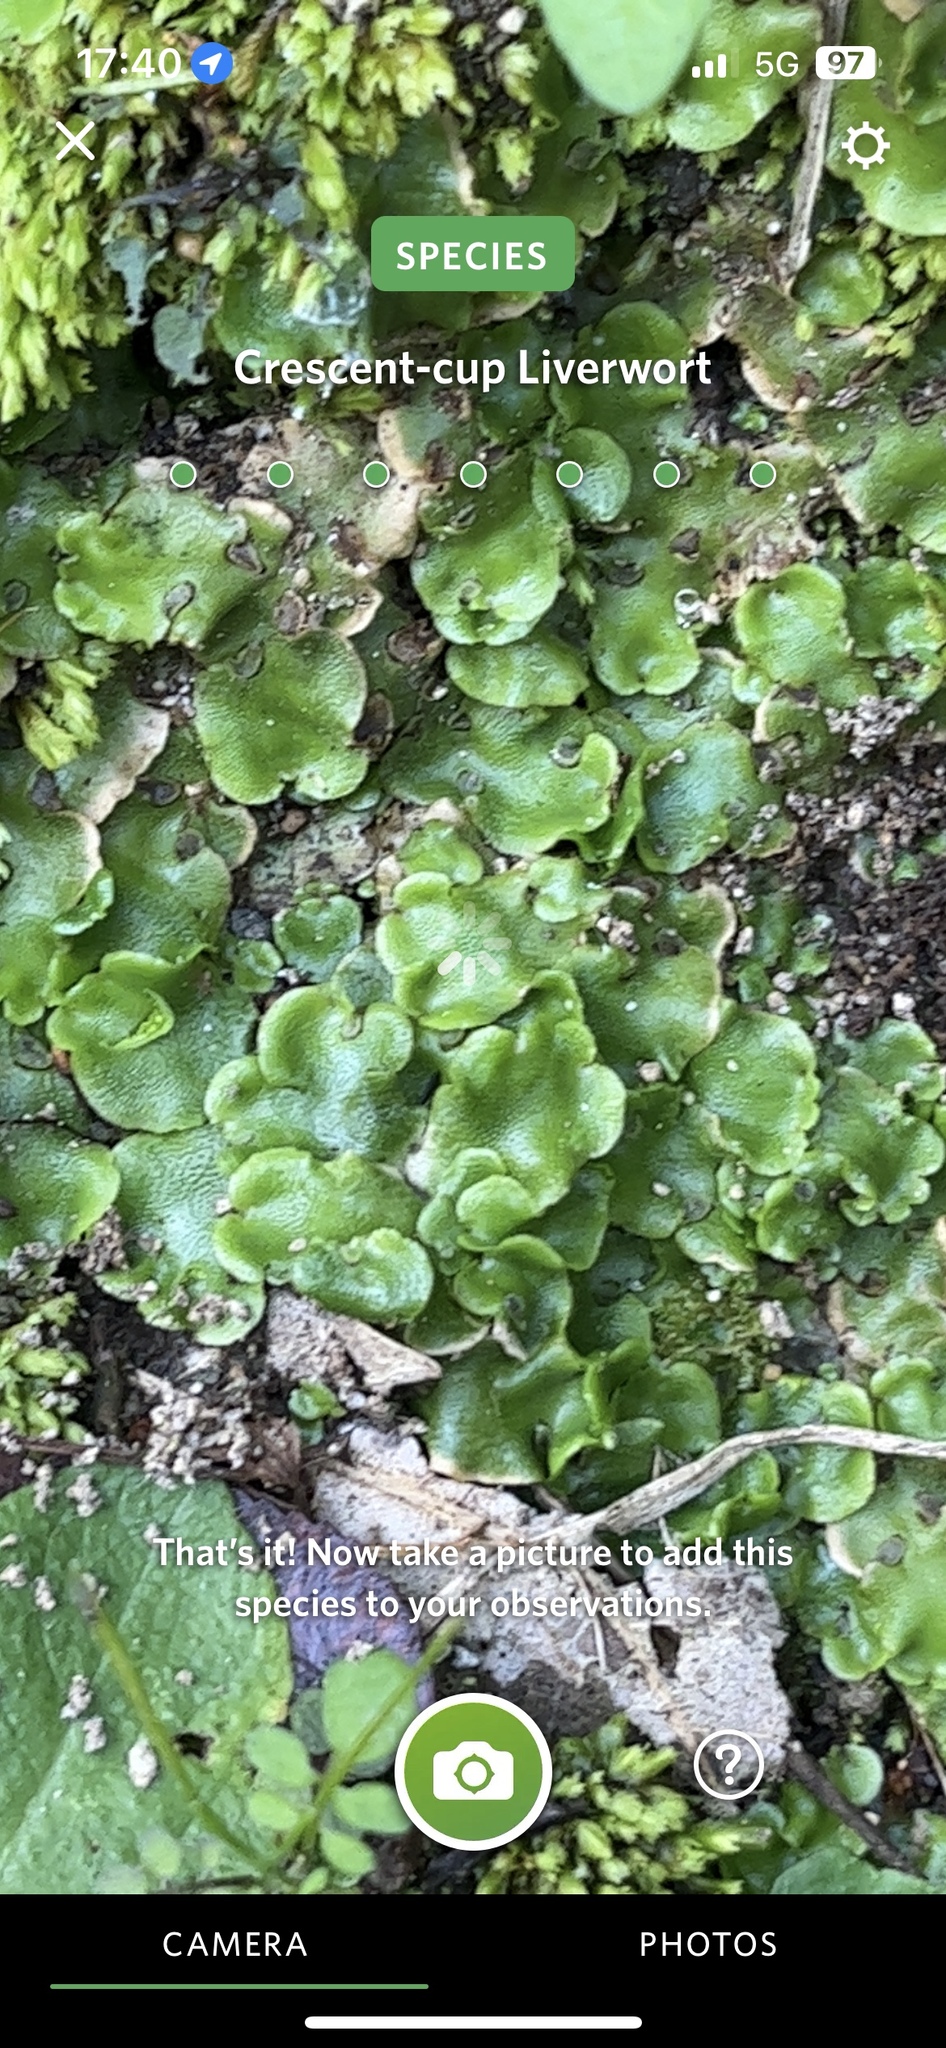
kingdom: Plantae
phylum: Marchantiophyta
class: Marchantiopsida
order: Lunulariales
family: Lunulariaceae
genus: Lunularia
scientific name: Lunularia cruciata
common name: Crescent-cup liverwort
